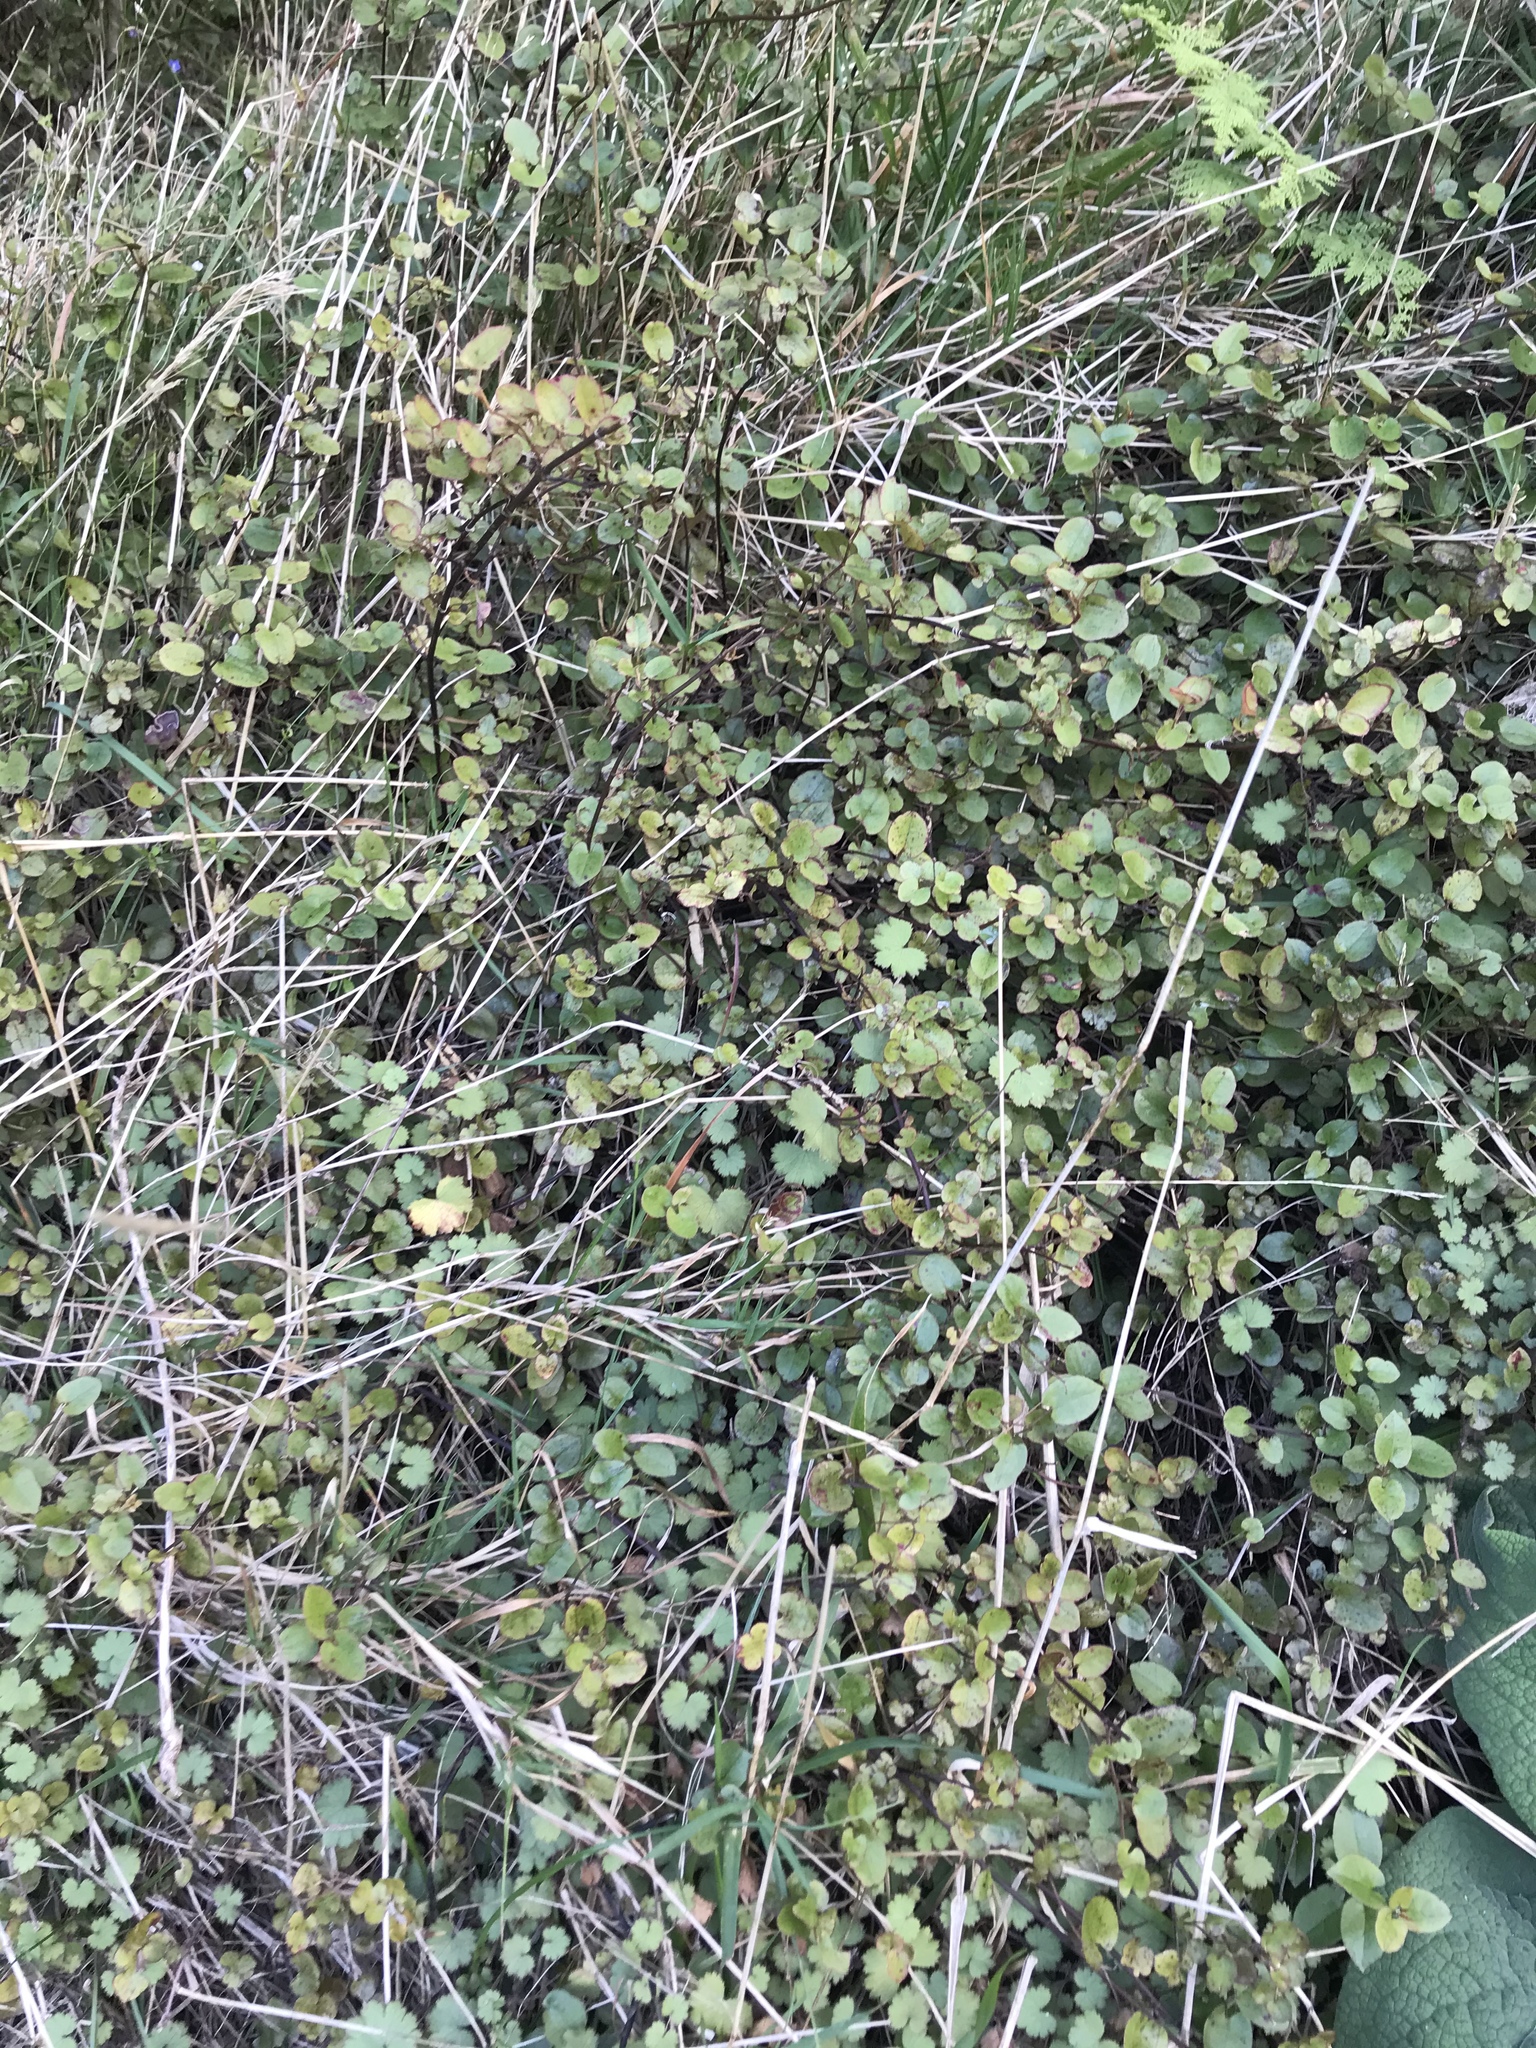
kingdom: Plantae
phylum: Tracheophyta
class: Magnoliopsida
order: Caryophyllales
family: Polygonaceae
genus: Muehlenbeckia
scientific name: Muehlenbeckia complexa
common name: Wireplant
